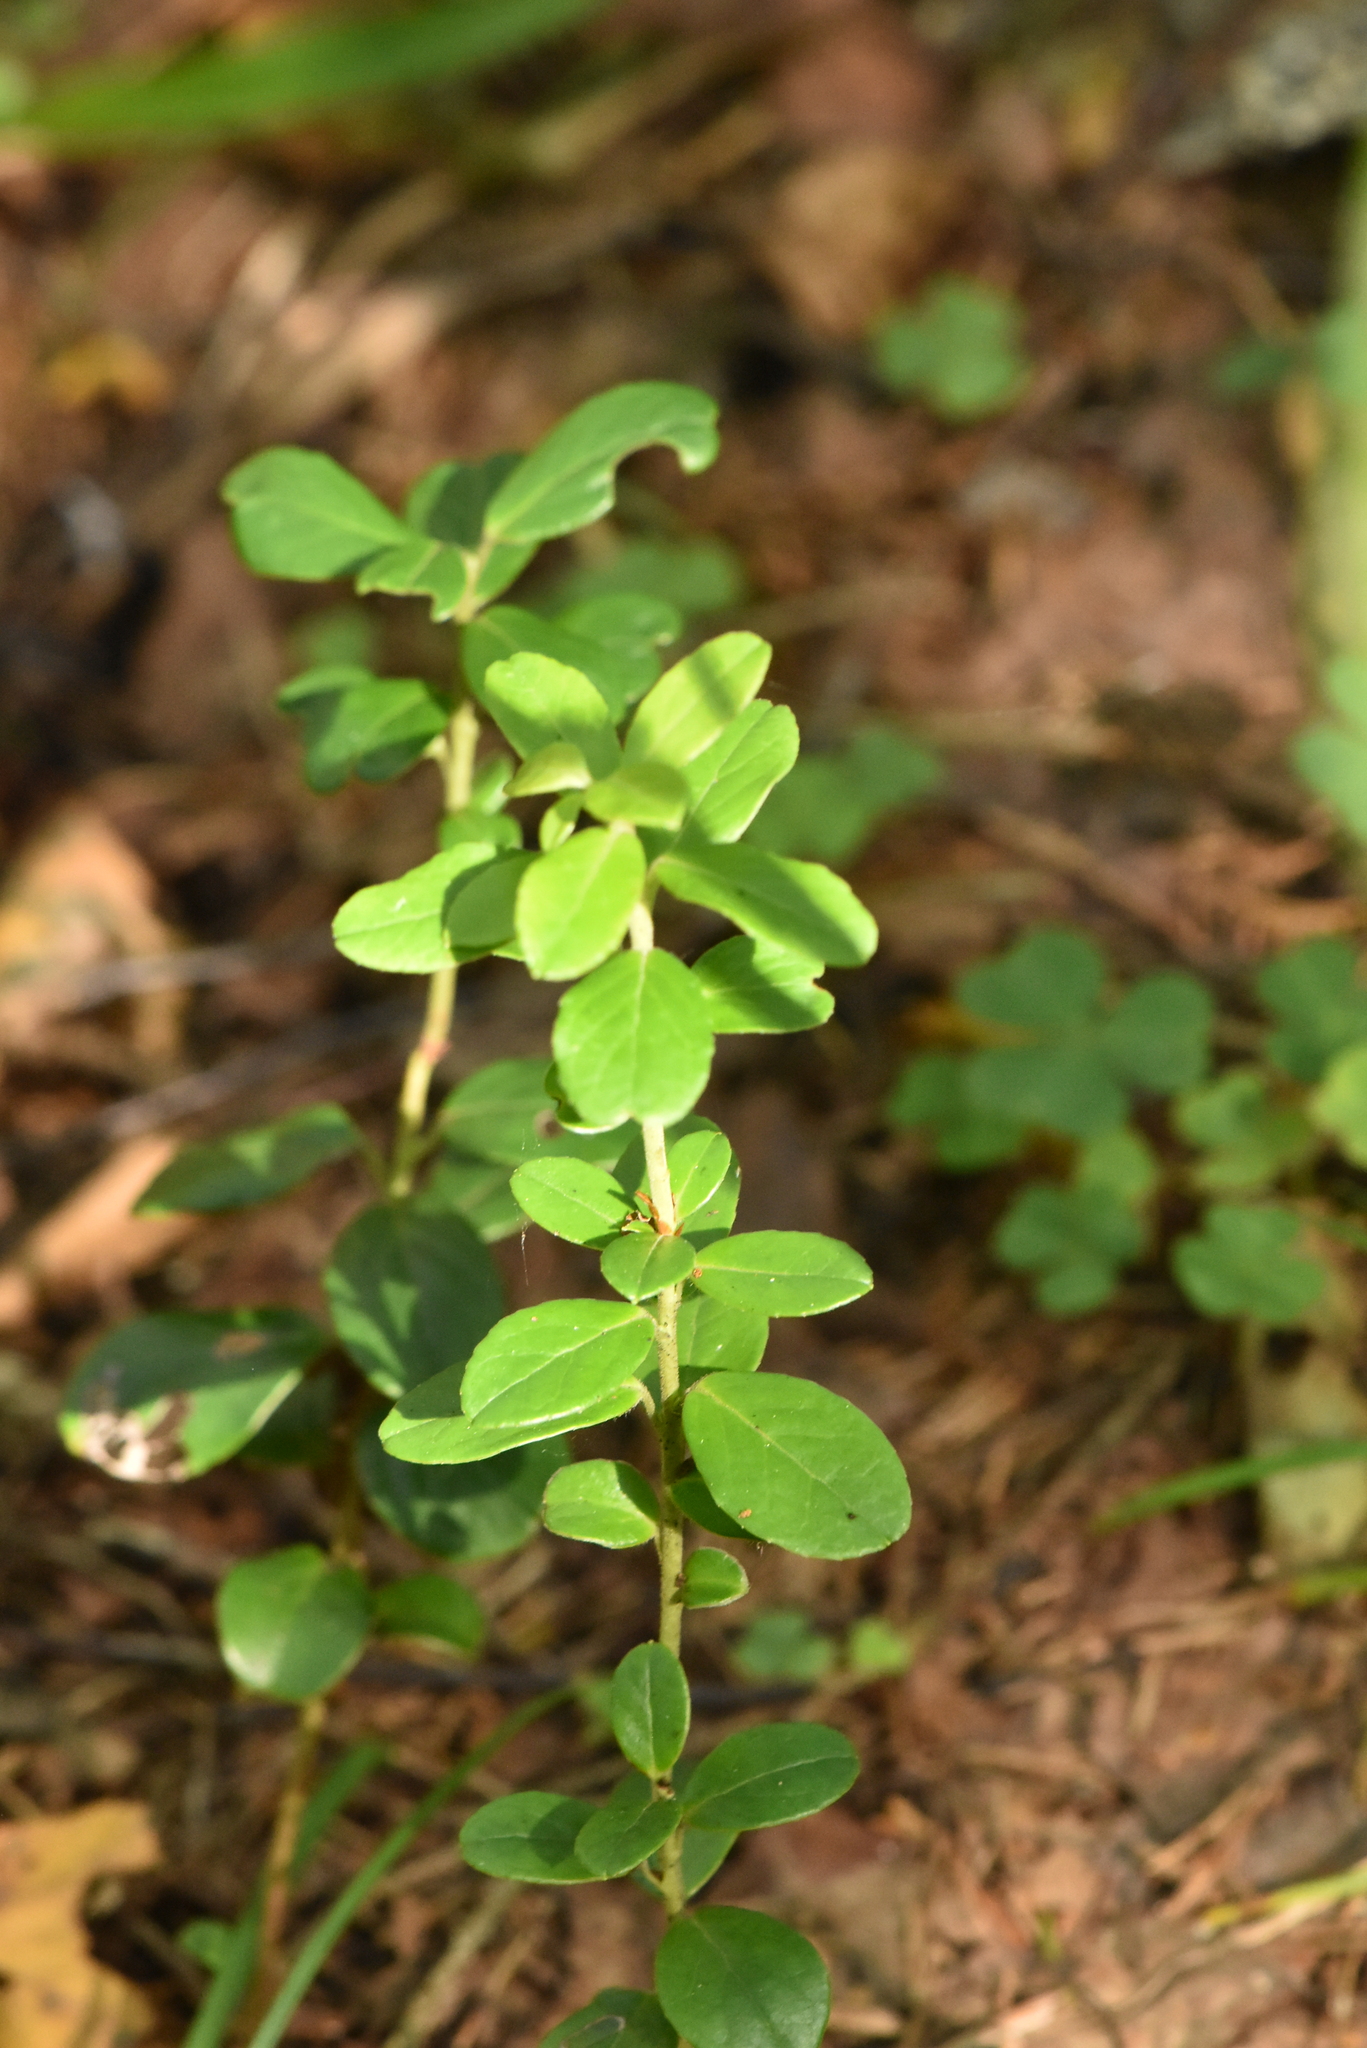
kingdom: Plantae
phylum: Tracheophyta
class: Magnoliopsida
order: Ericales
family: Ericaceae
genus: Vaccinium
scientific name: Vaccinium vitis-idaea
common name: Cowberry
